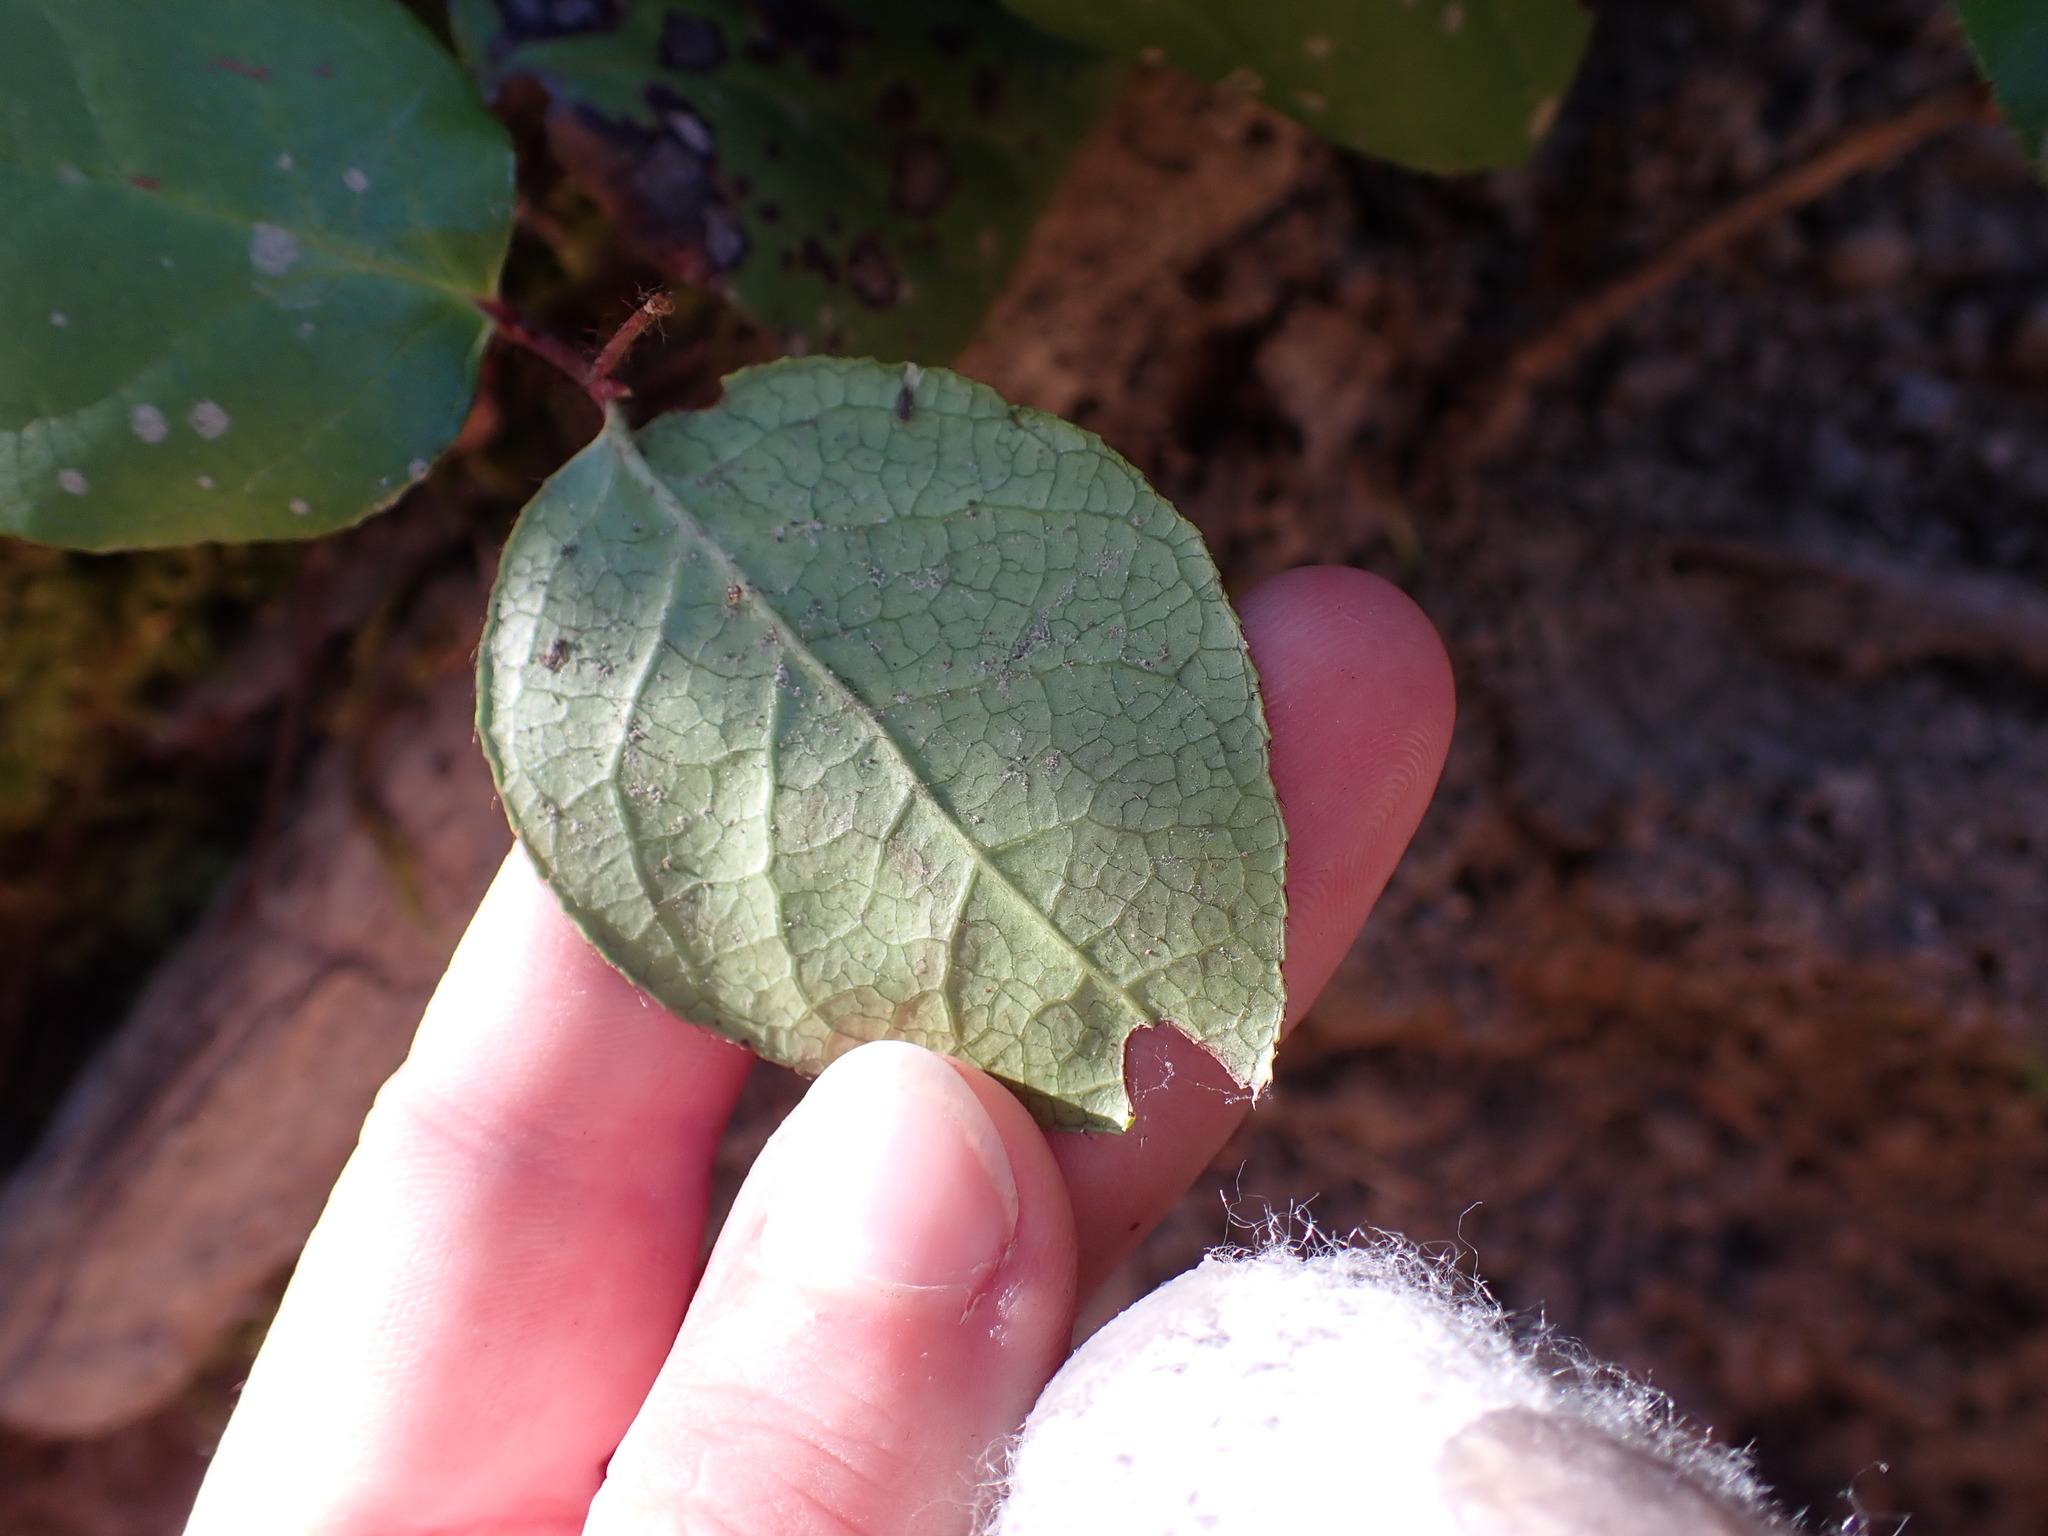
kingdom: Animalia
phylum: Arthropoda
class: Insecta
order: Lepidoptera
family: Gracillariidae
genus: Cameraria
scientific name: Cameraria gaultheriella
